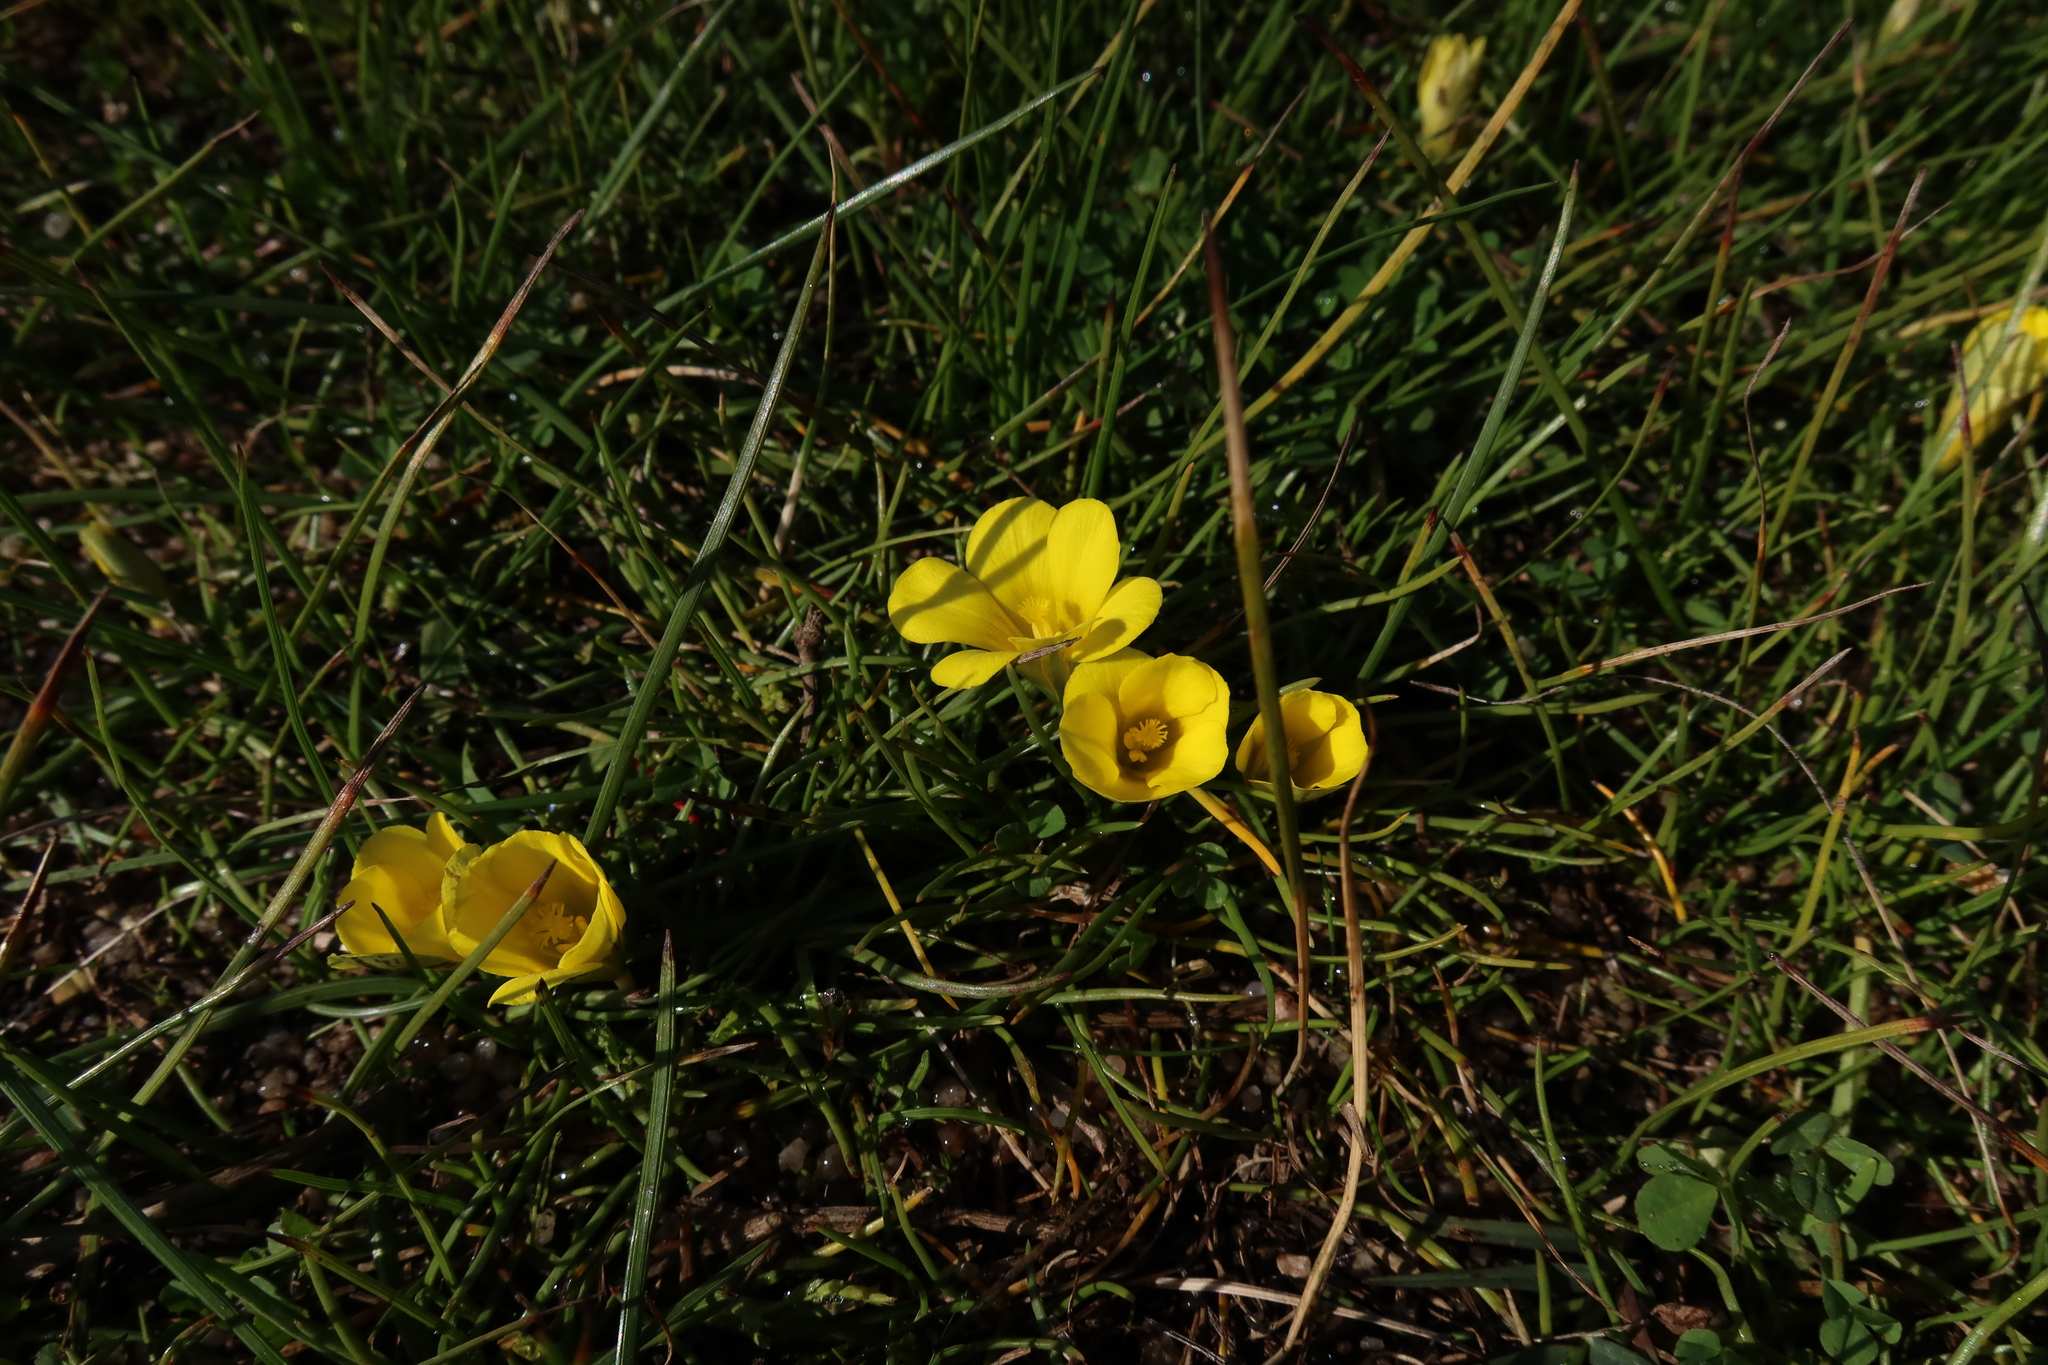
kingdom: Plantae
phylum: Tracheophyta
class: Liliopsida
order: Asparagales
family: Iridaceae
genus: Moraea
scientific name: Moraea fugacissima
